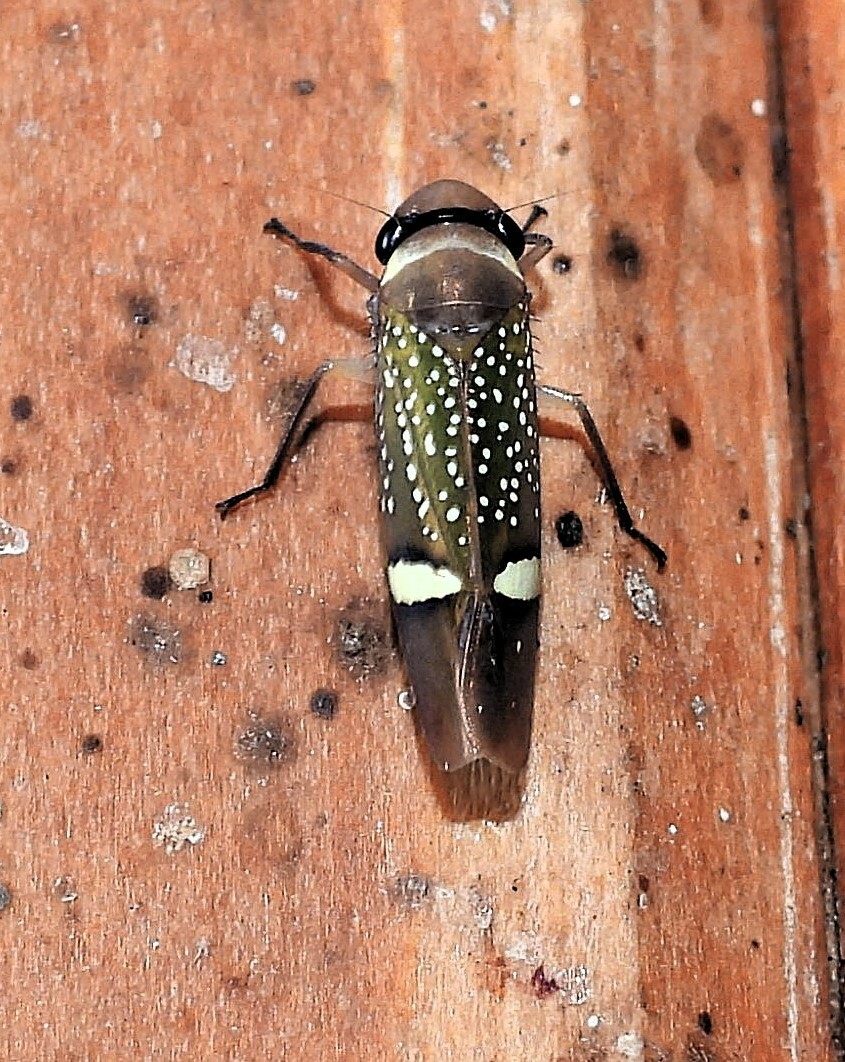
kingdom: Animalia
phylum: Arthropoda
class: Insecta
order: Hemiptera
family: Cicadellidae
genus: Scoposcartula
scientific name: Scoposcartula limitata
